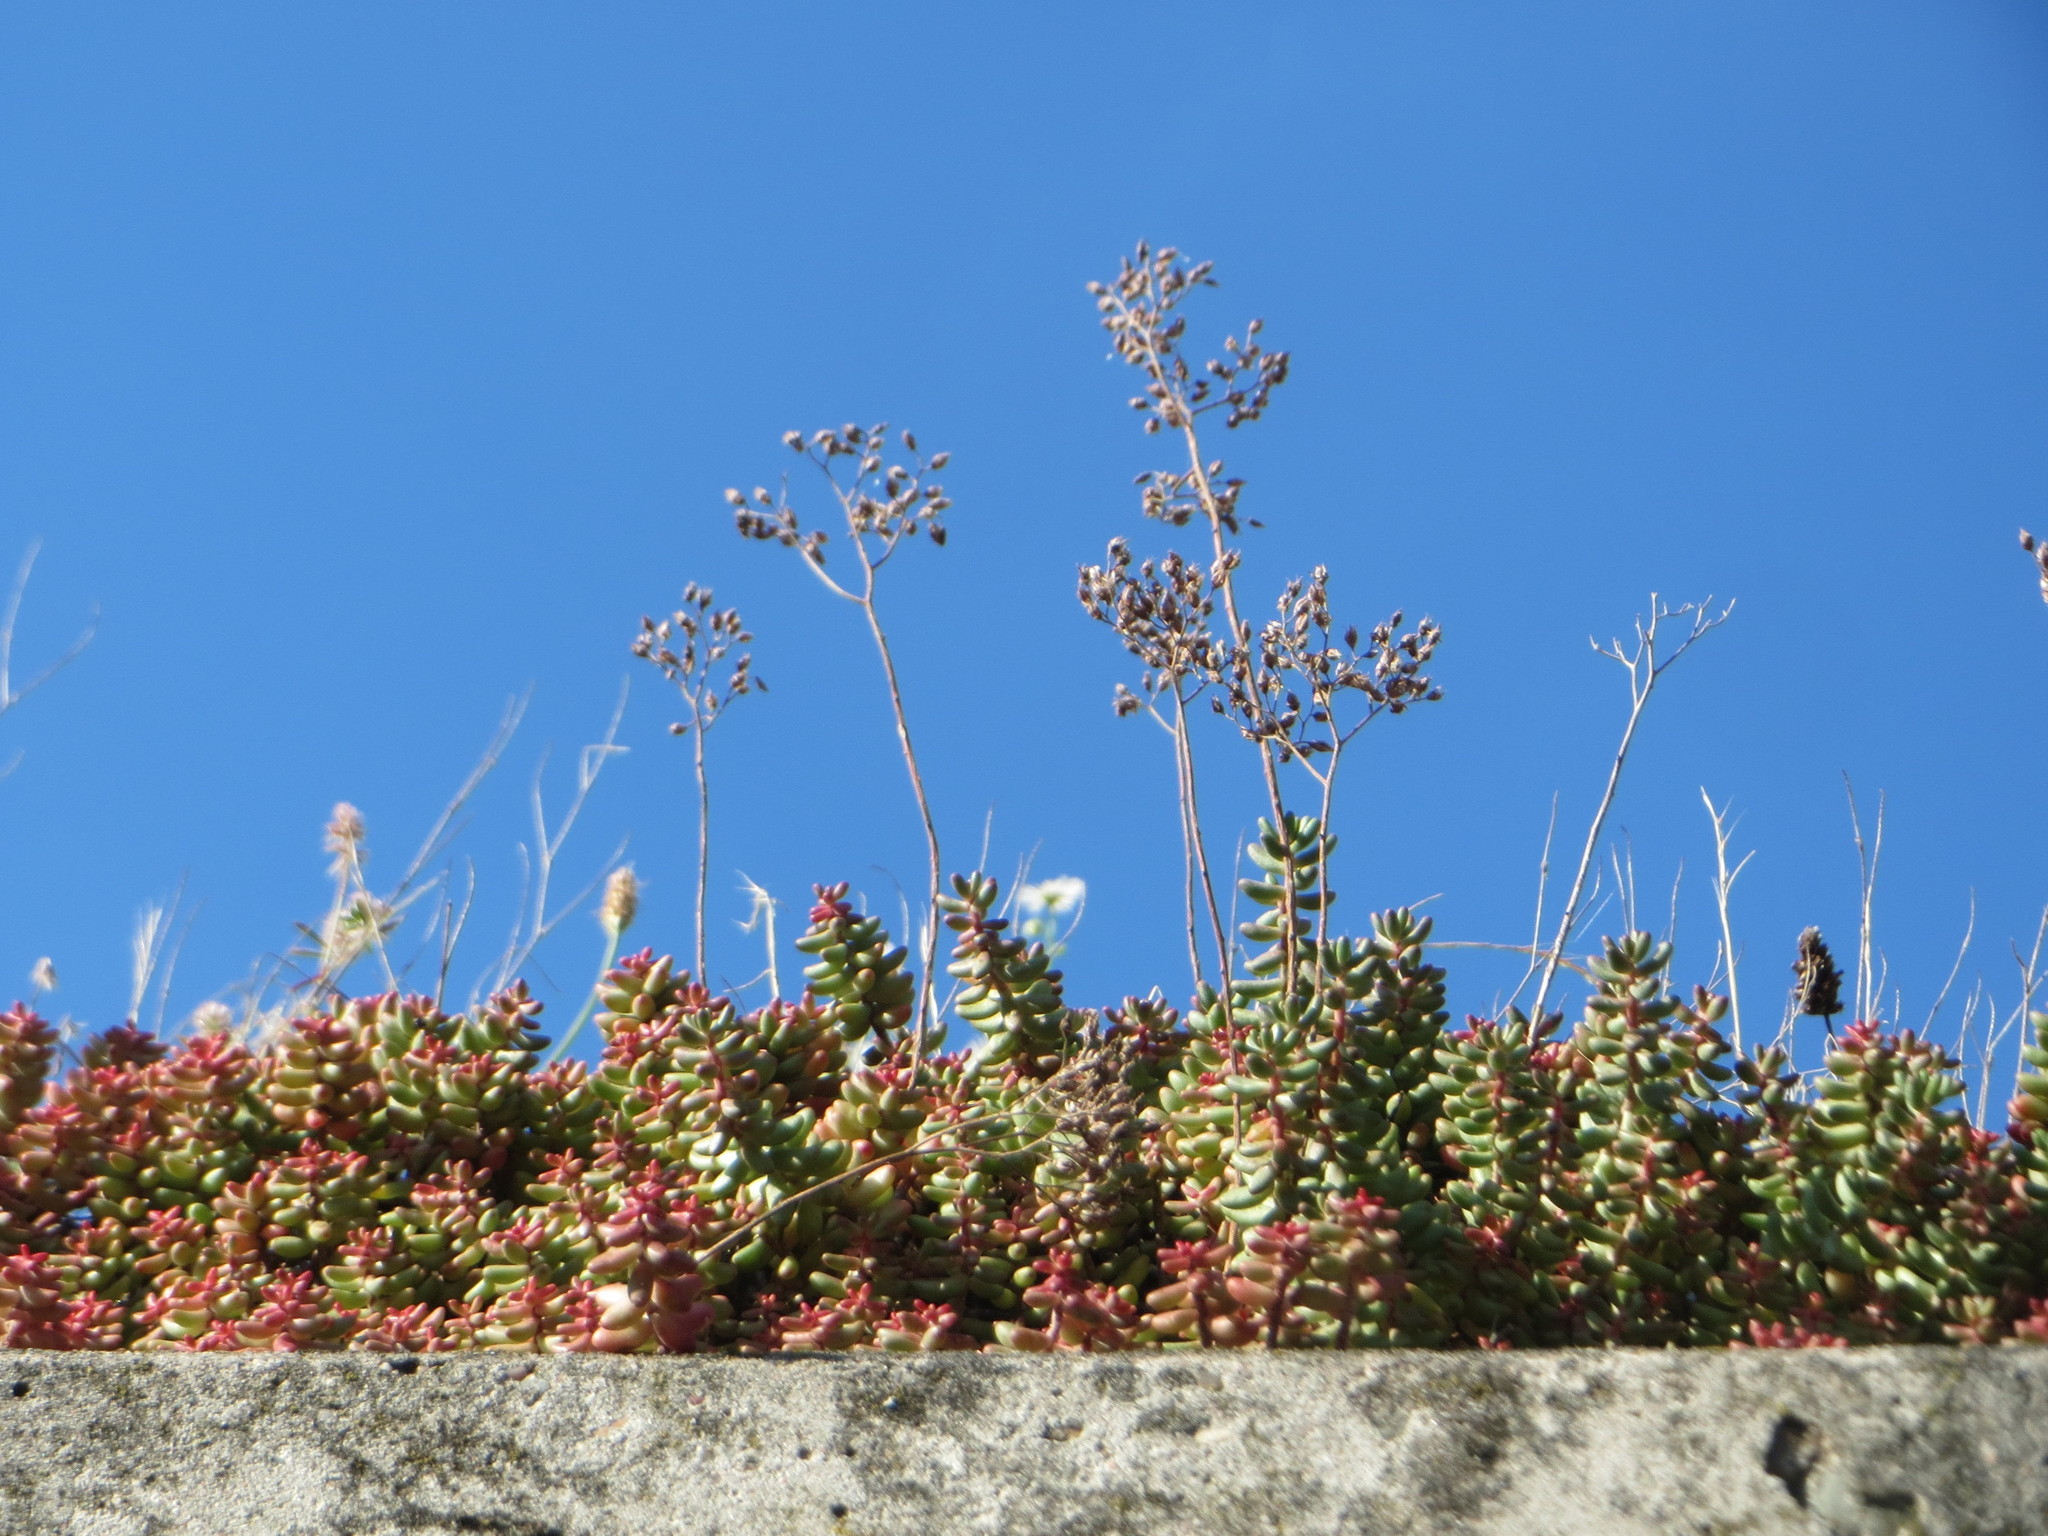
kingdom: Plantae
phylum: Tracheophyta
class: Magnoliopsida
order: Saxifragales
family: Crassulaceae
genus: Sedum
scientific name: Sedum album
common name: White stonecrop
